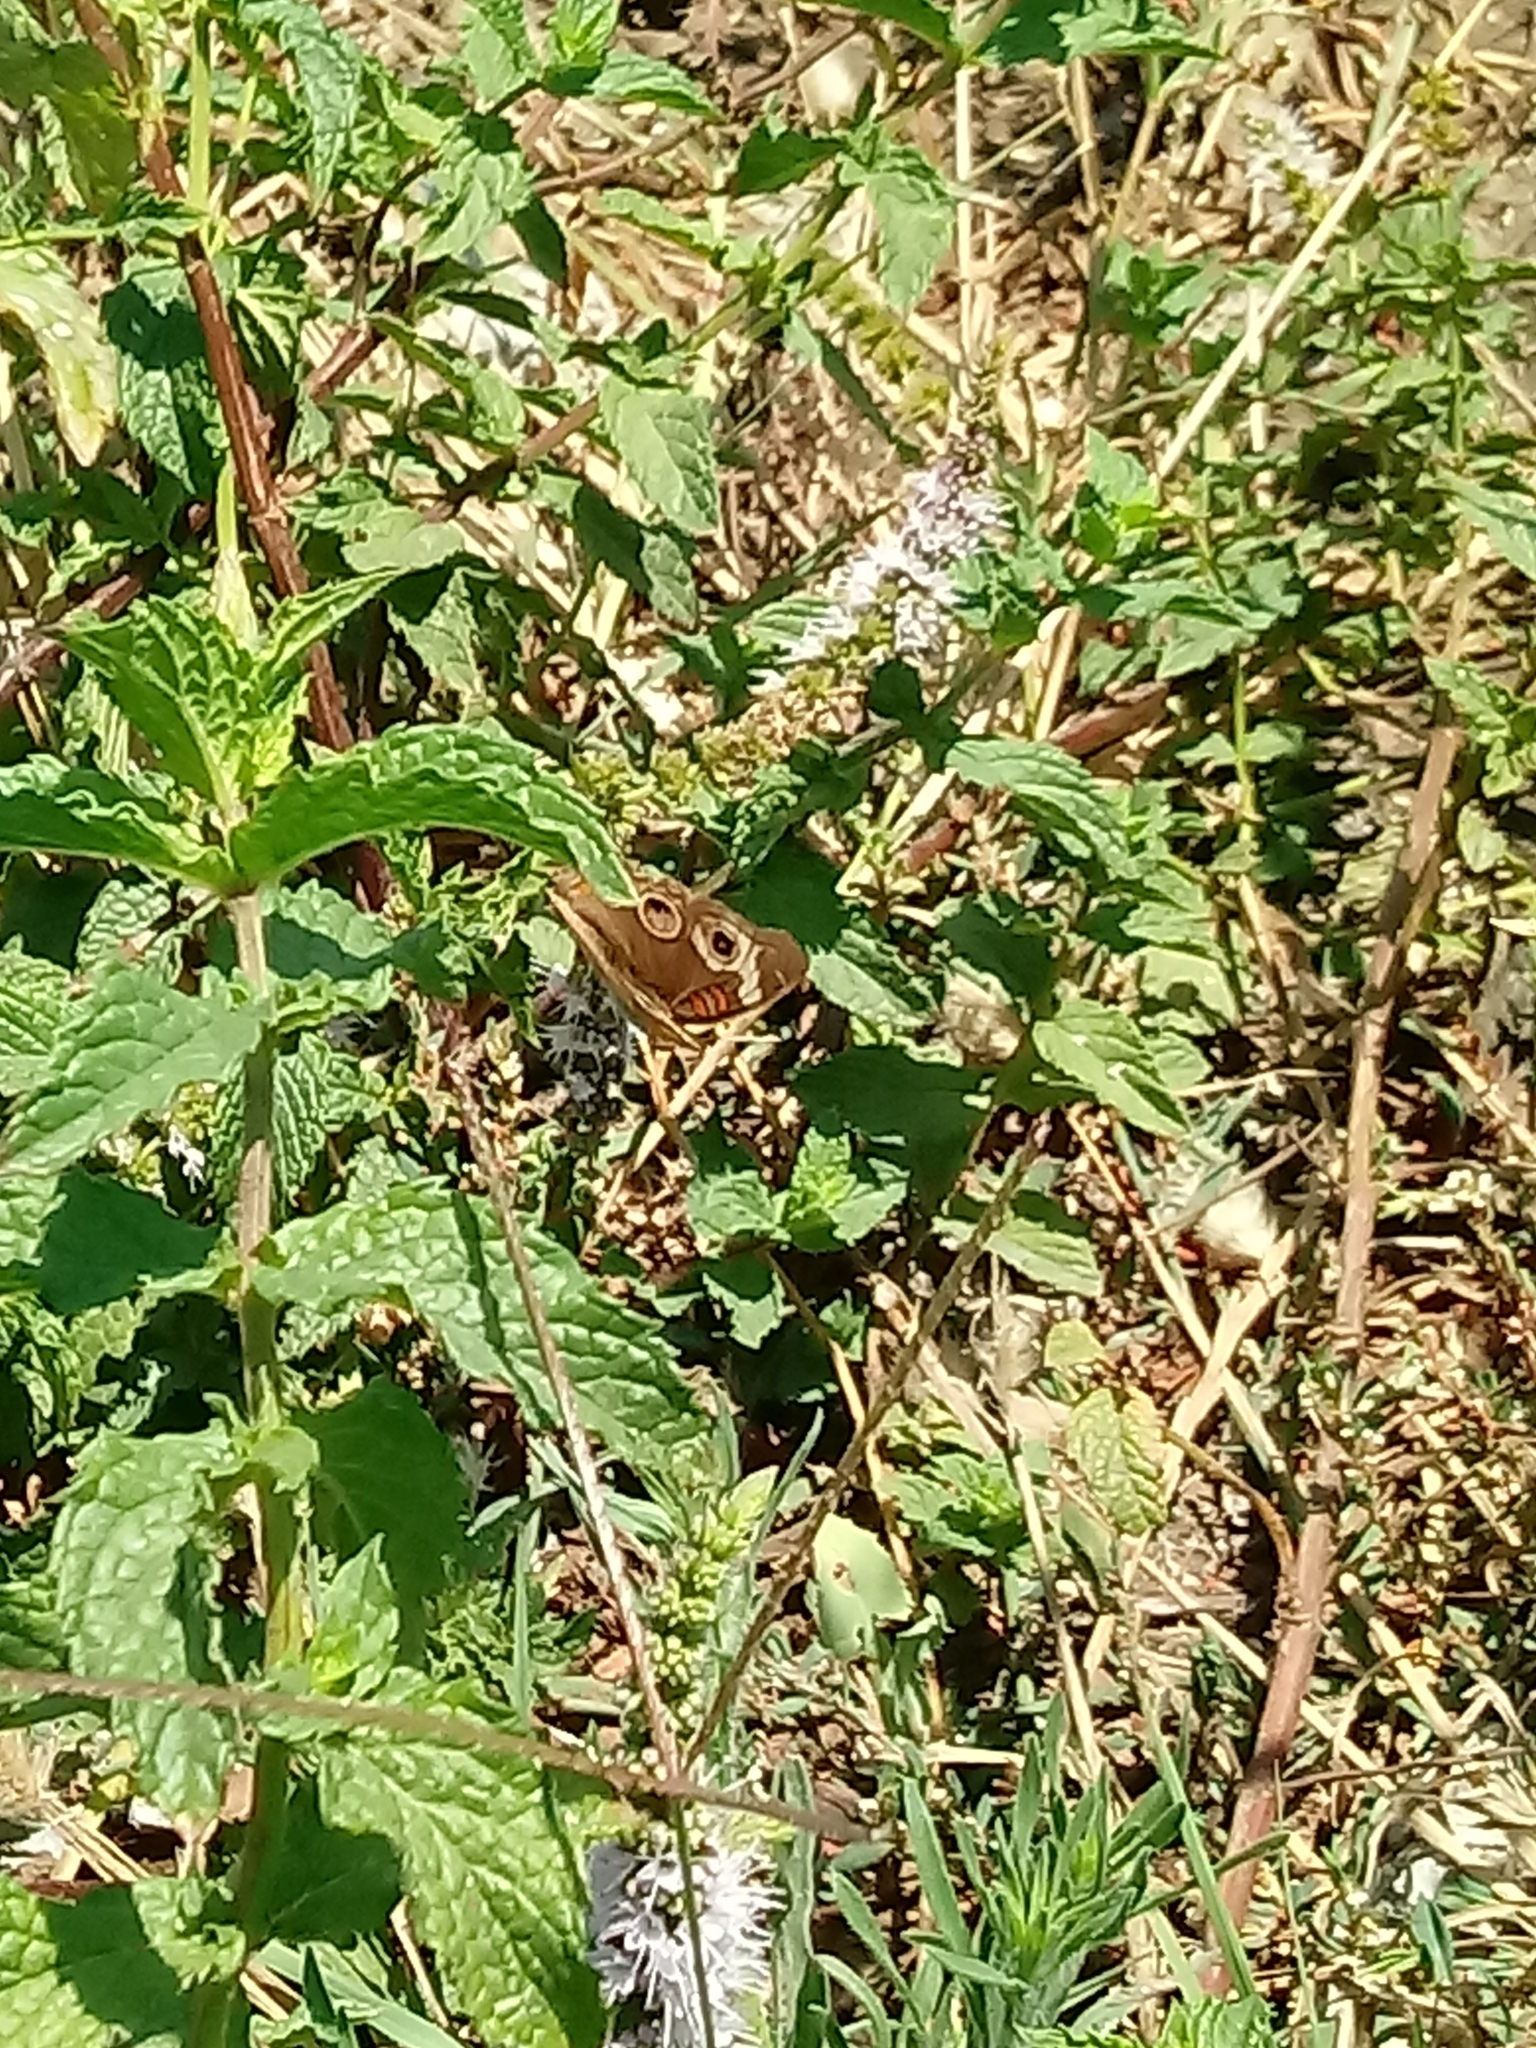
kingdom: Animalia
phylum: Arthropoda
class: Insecta
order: Lepidoptera
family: Nymphalidae
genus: Junonia
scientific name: Junonia grisea
